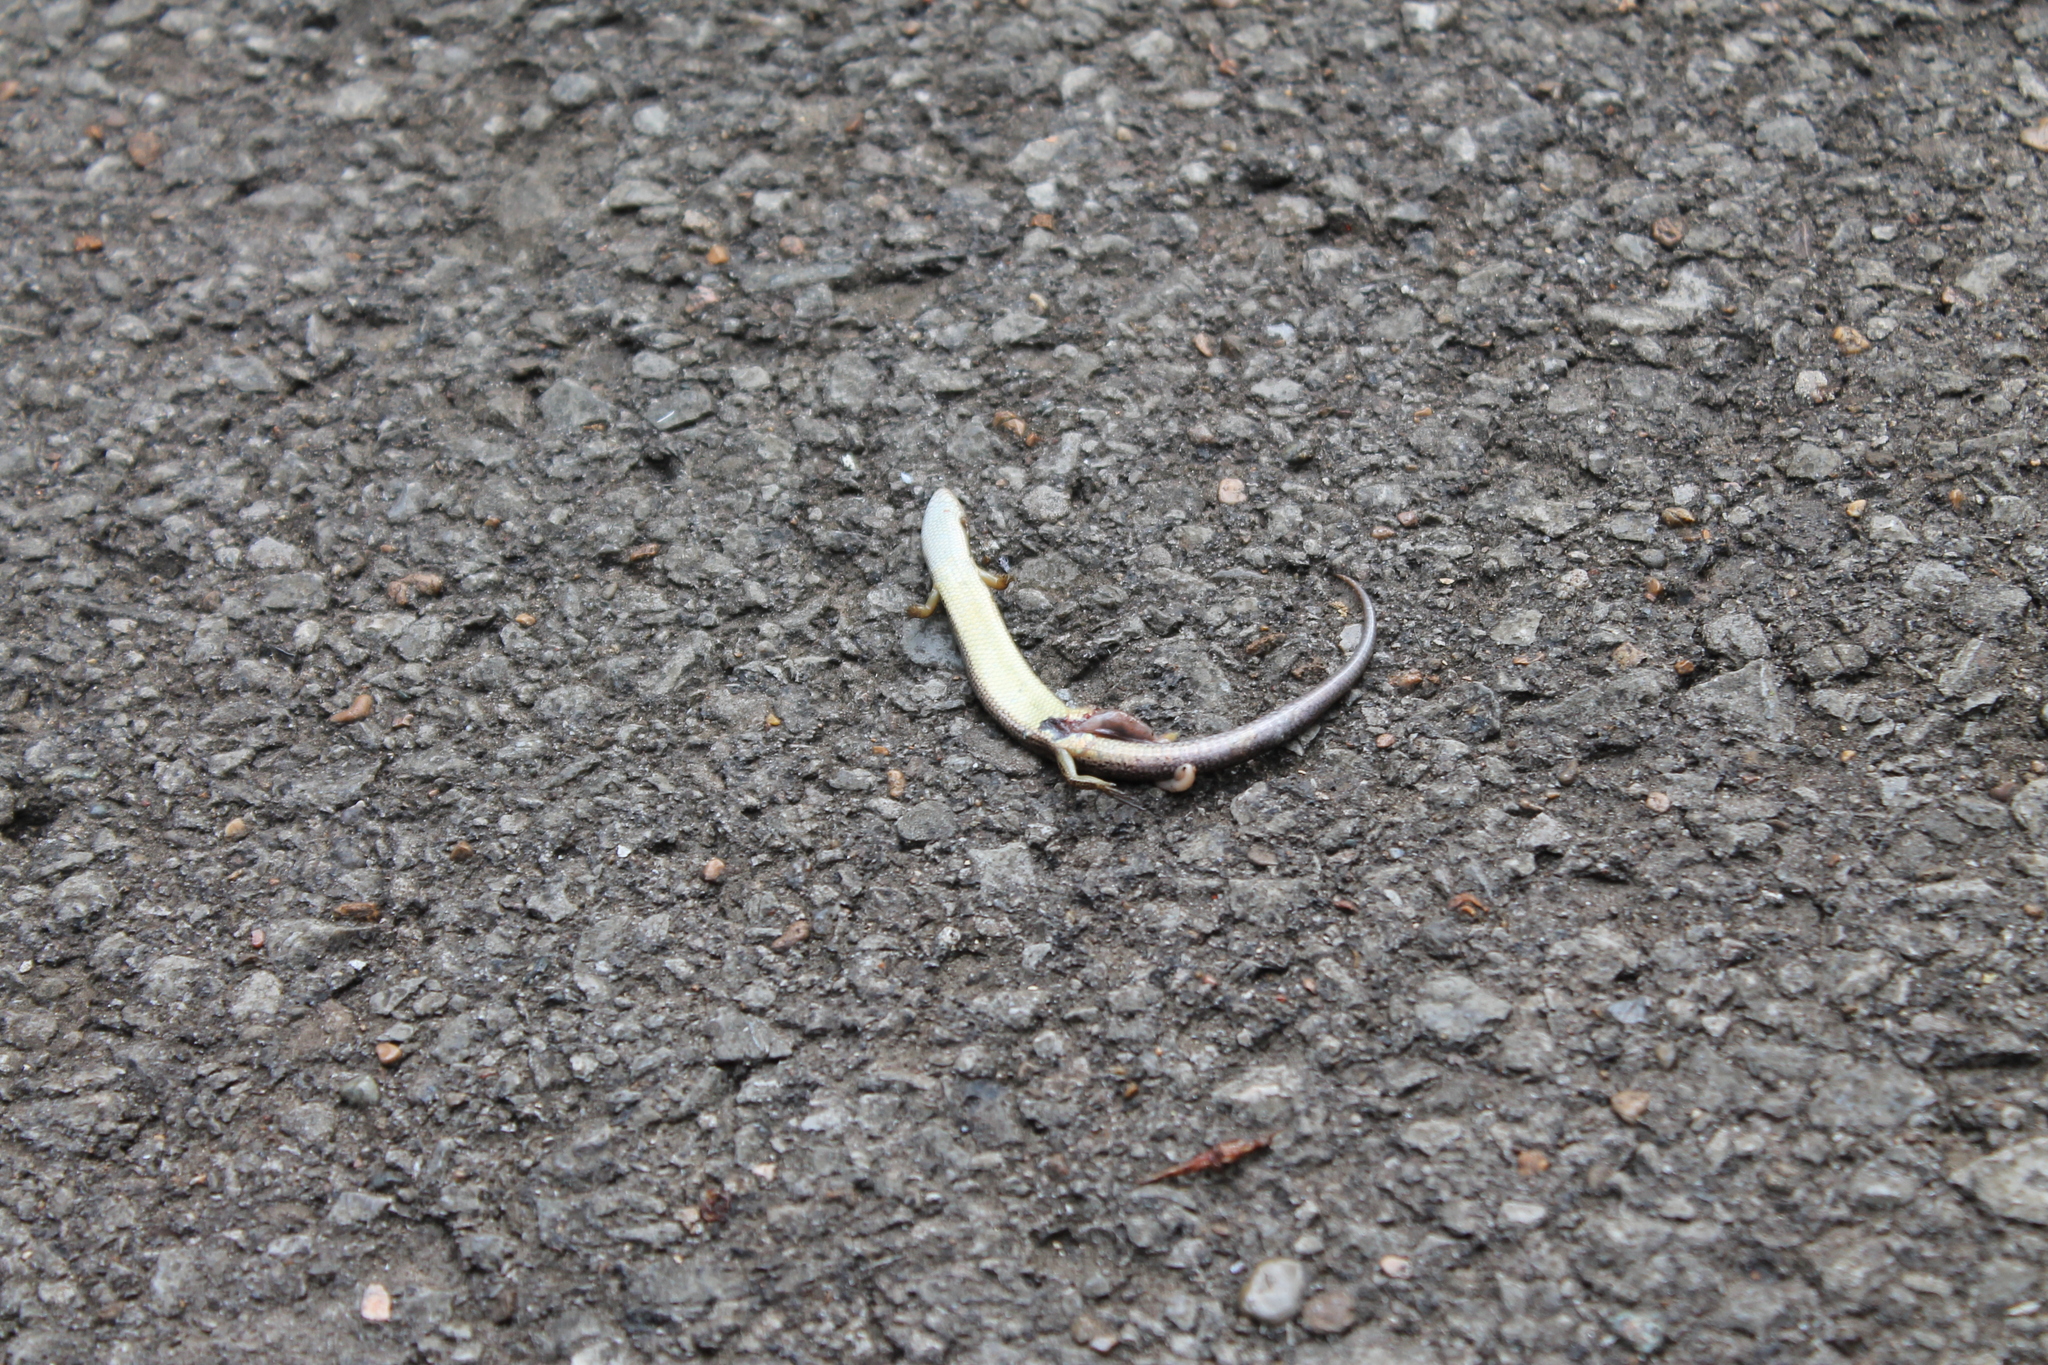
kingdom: Animalia
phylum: Chordata
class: Squamata
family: Scincidae
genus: Scincella
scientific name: Scincella lateralis
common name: Ground skink
